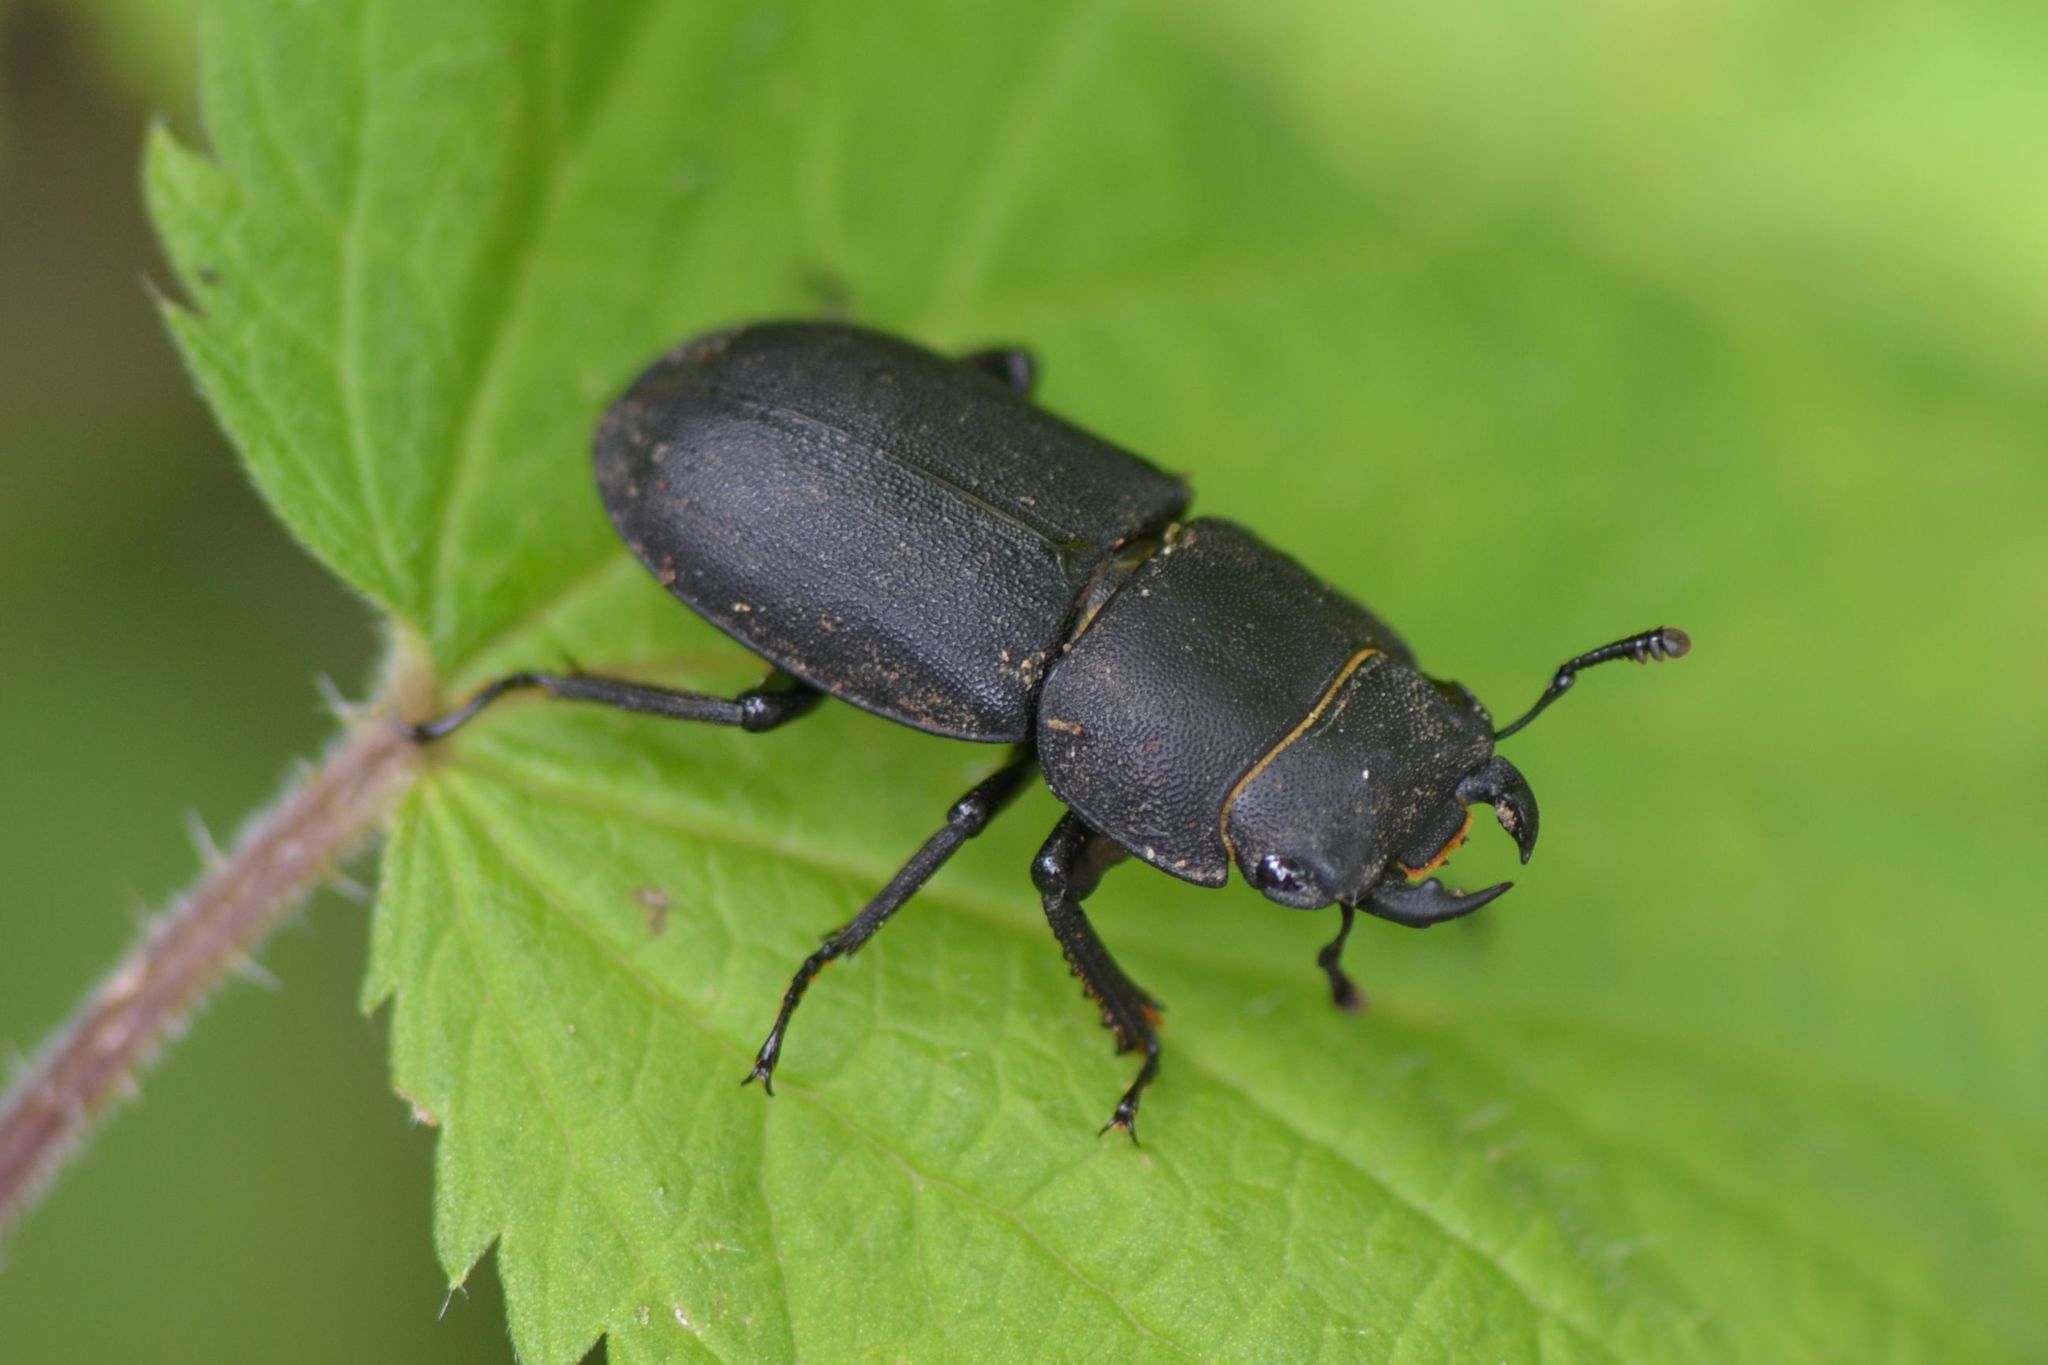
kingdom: Animalia
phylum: Arthropoda
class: Insecta
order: Coleoptera
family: Lucanidae
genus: Dorcus
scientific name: Dorcus parallelipipedus
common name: Lesser stag beetle
